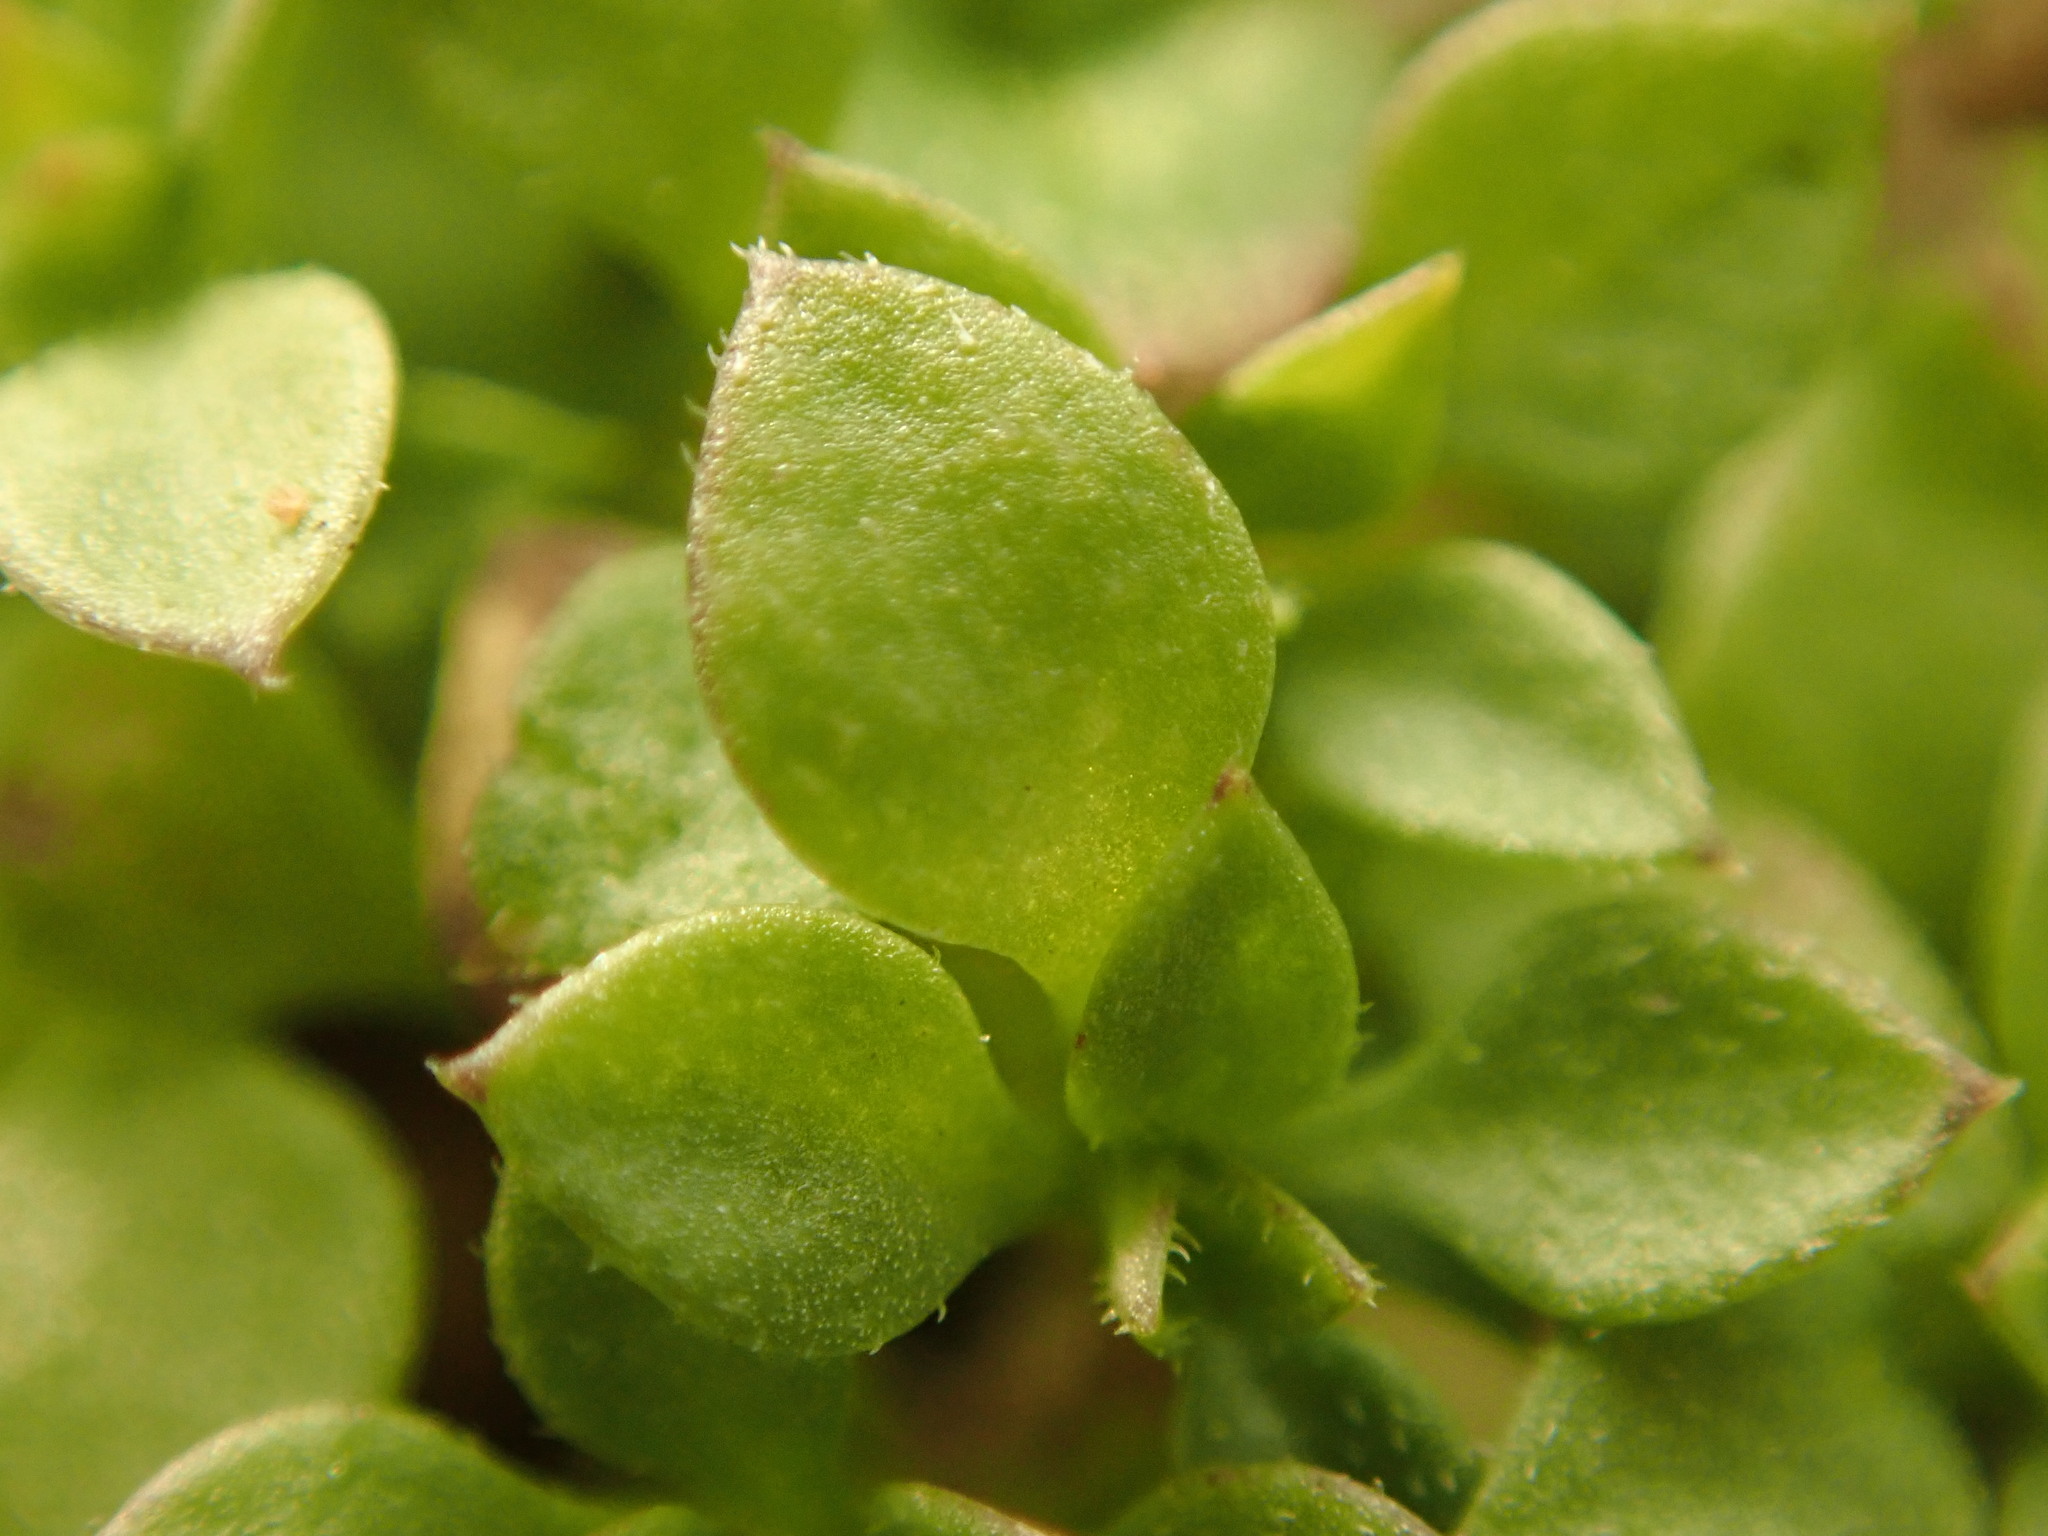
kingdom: Plantae
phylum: Tracheophyta
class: Magnoliopsida
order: Caryophyllales
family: Caryophyllaceae
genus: Stellaria
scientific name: Stellaria media
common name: Common chickweed
